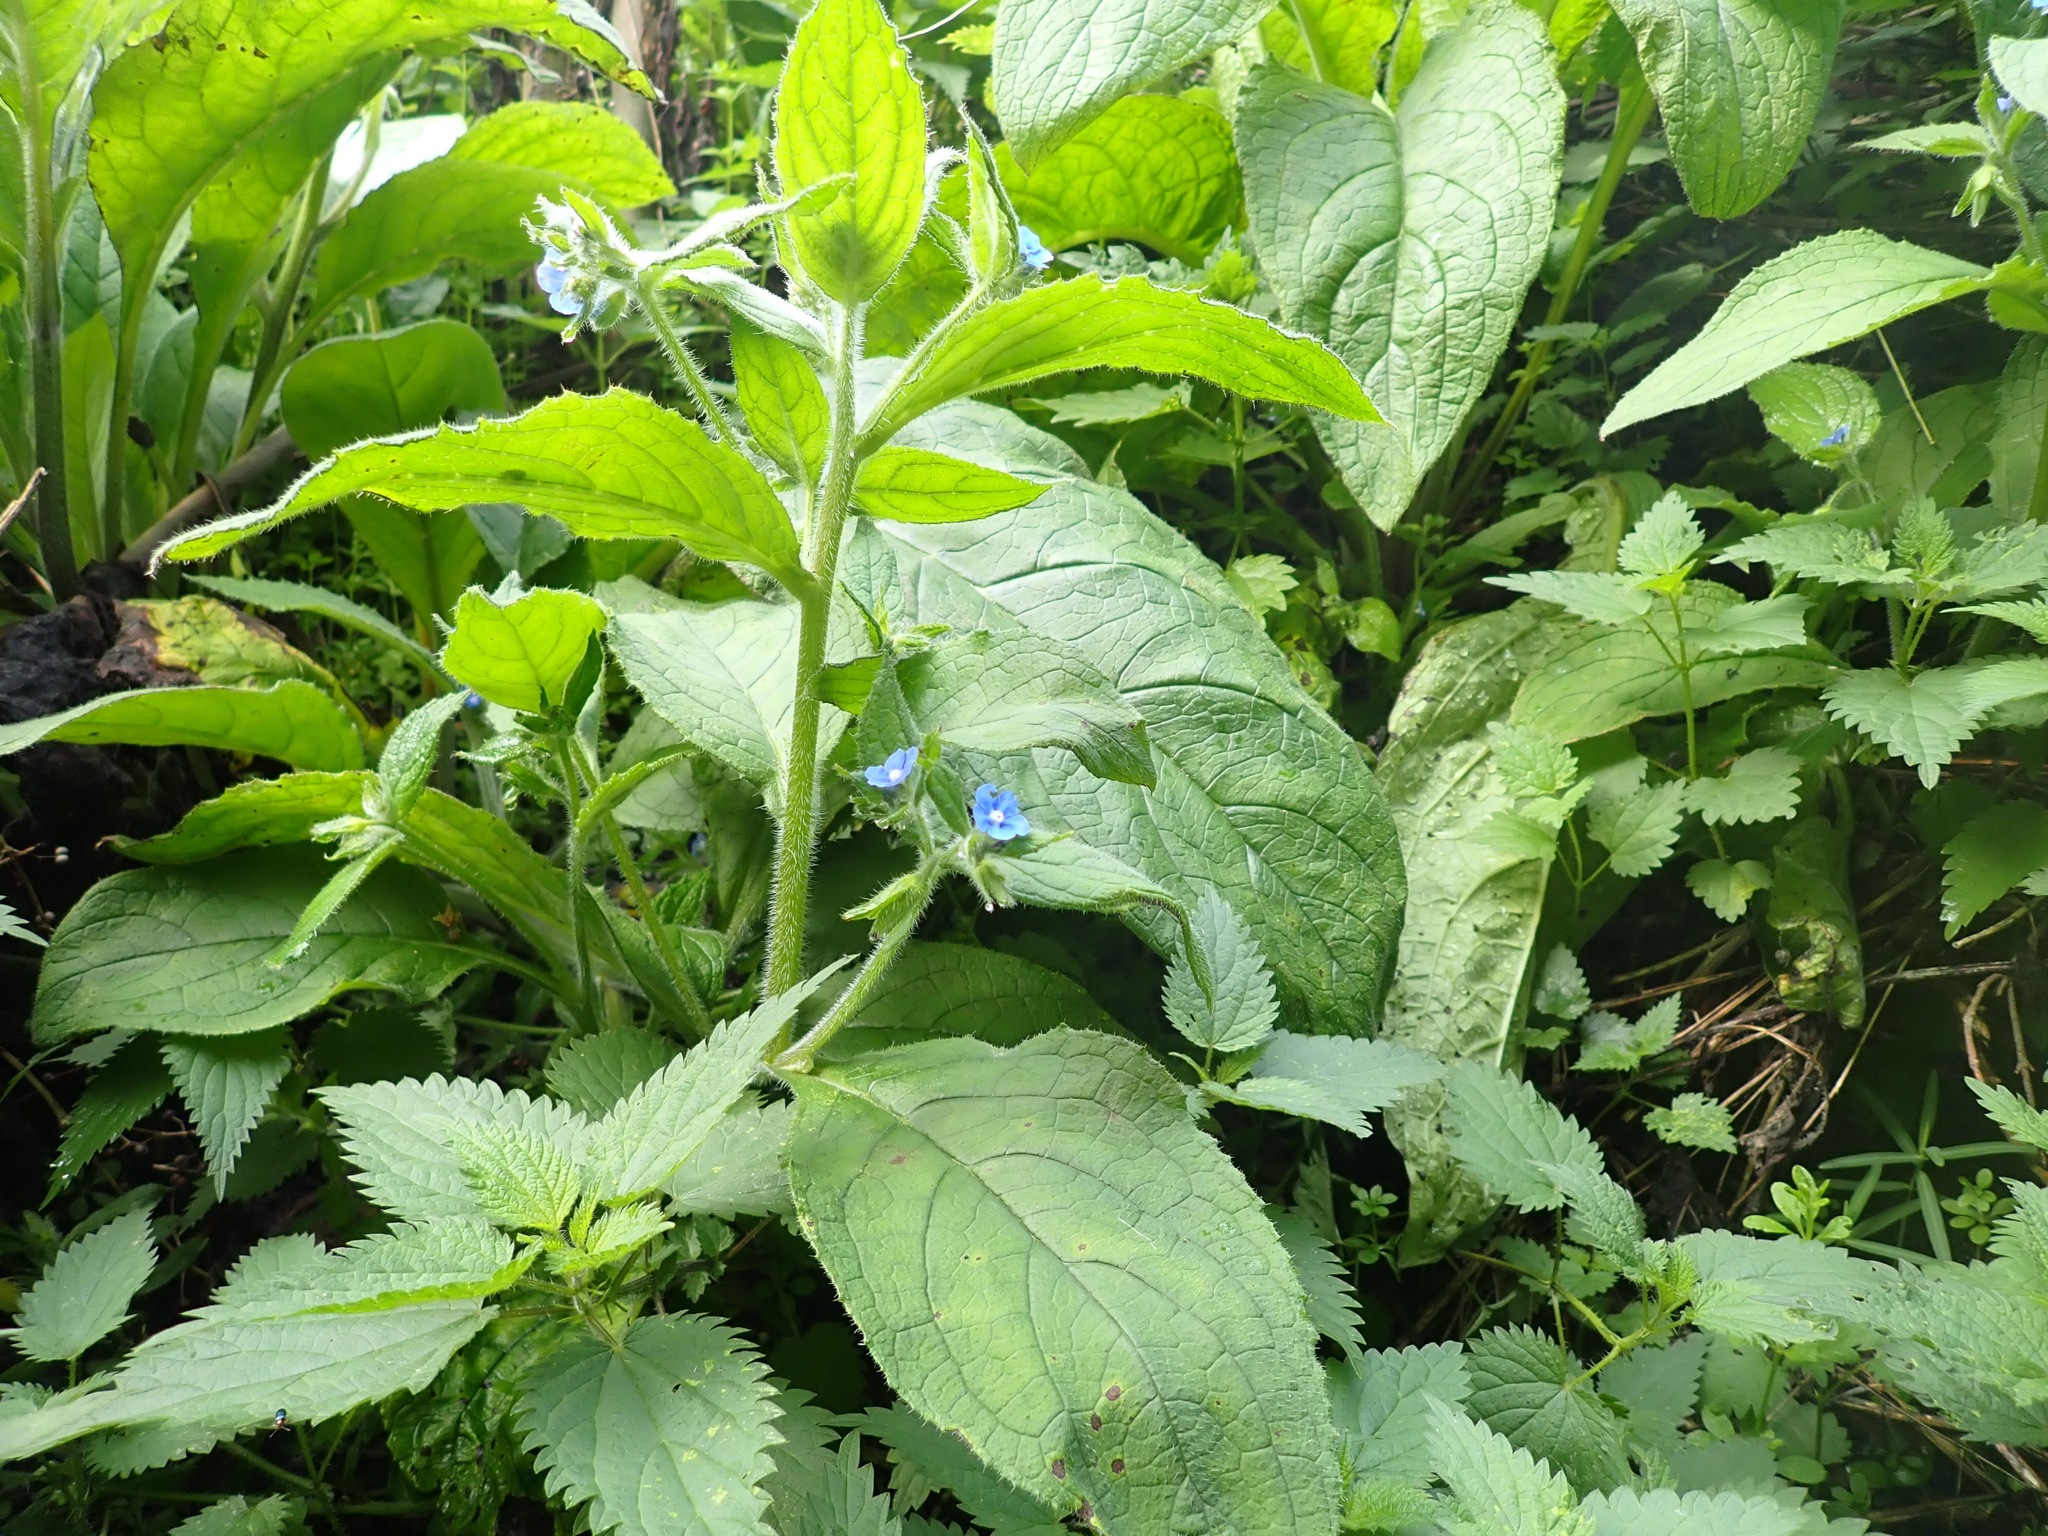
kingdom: Plantae
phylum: Tracheophyta
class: Magnoliopsida
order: Boraginales
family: Boraginaceae
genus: Pentaglottis
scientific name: Pentaglottis sempervirens
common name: Green alkanet
